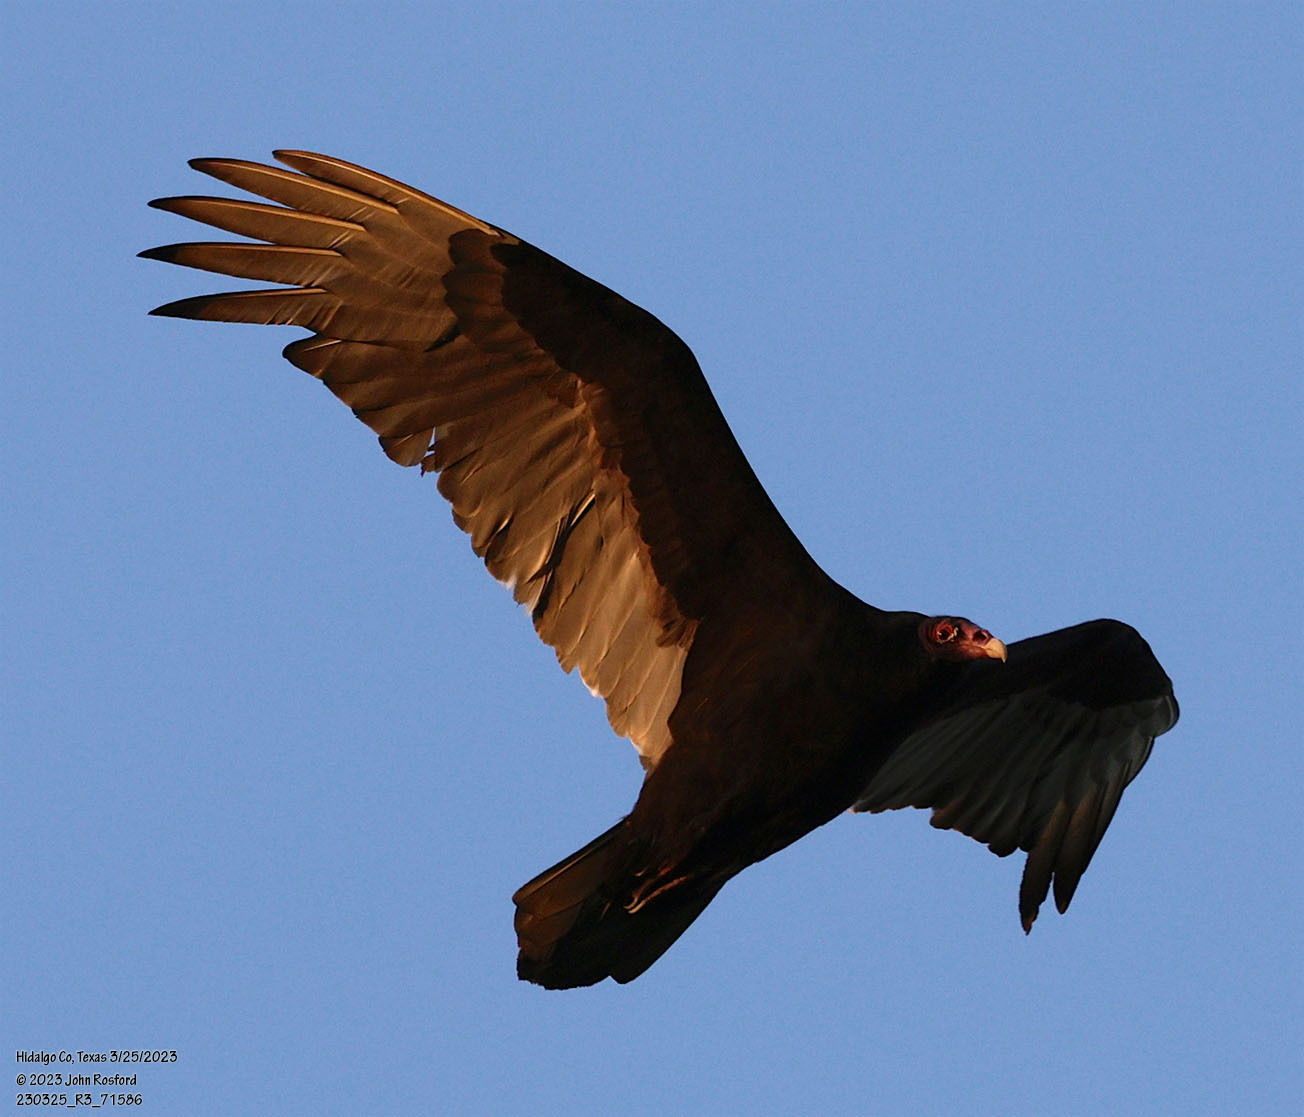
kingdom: Animalia
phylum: Chordata
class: Aves
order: Accipitriformes
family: Cathartidae
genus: Cathartes
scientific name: Cathartes aura
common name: Turkey vulture
